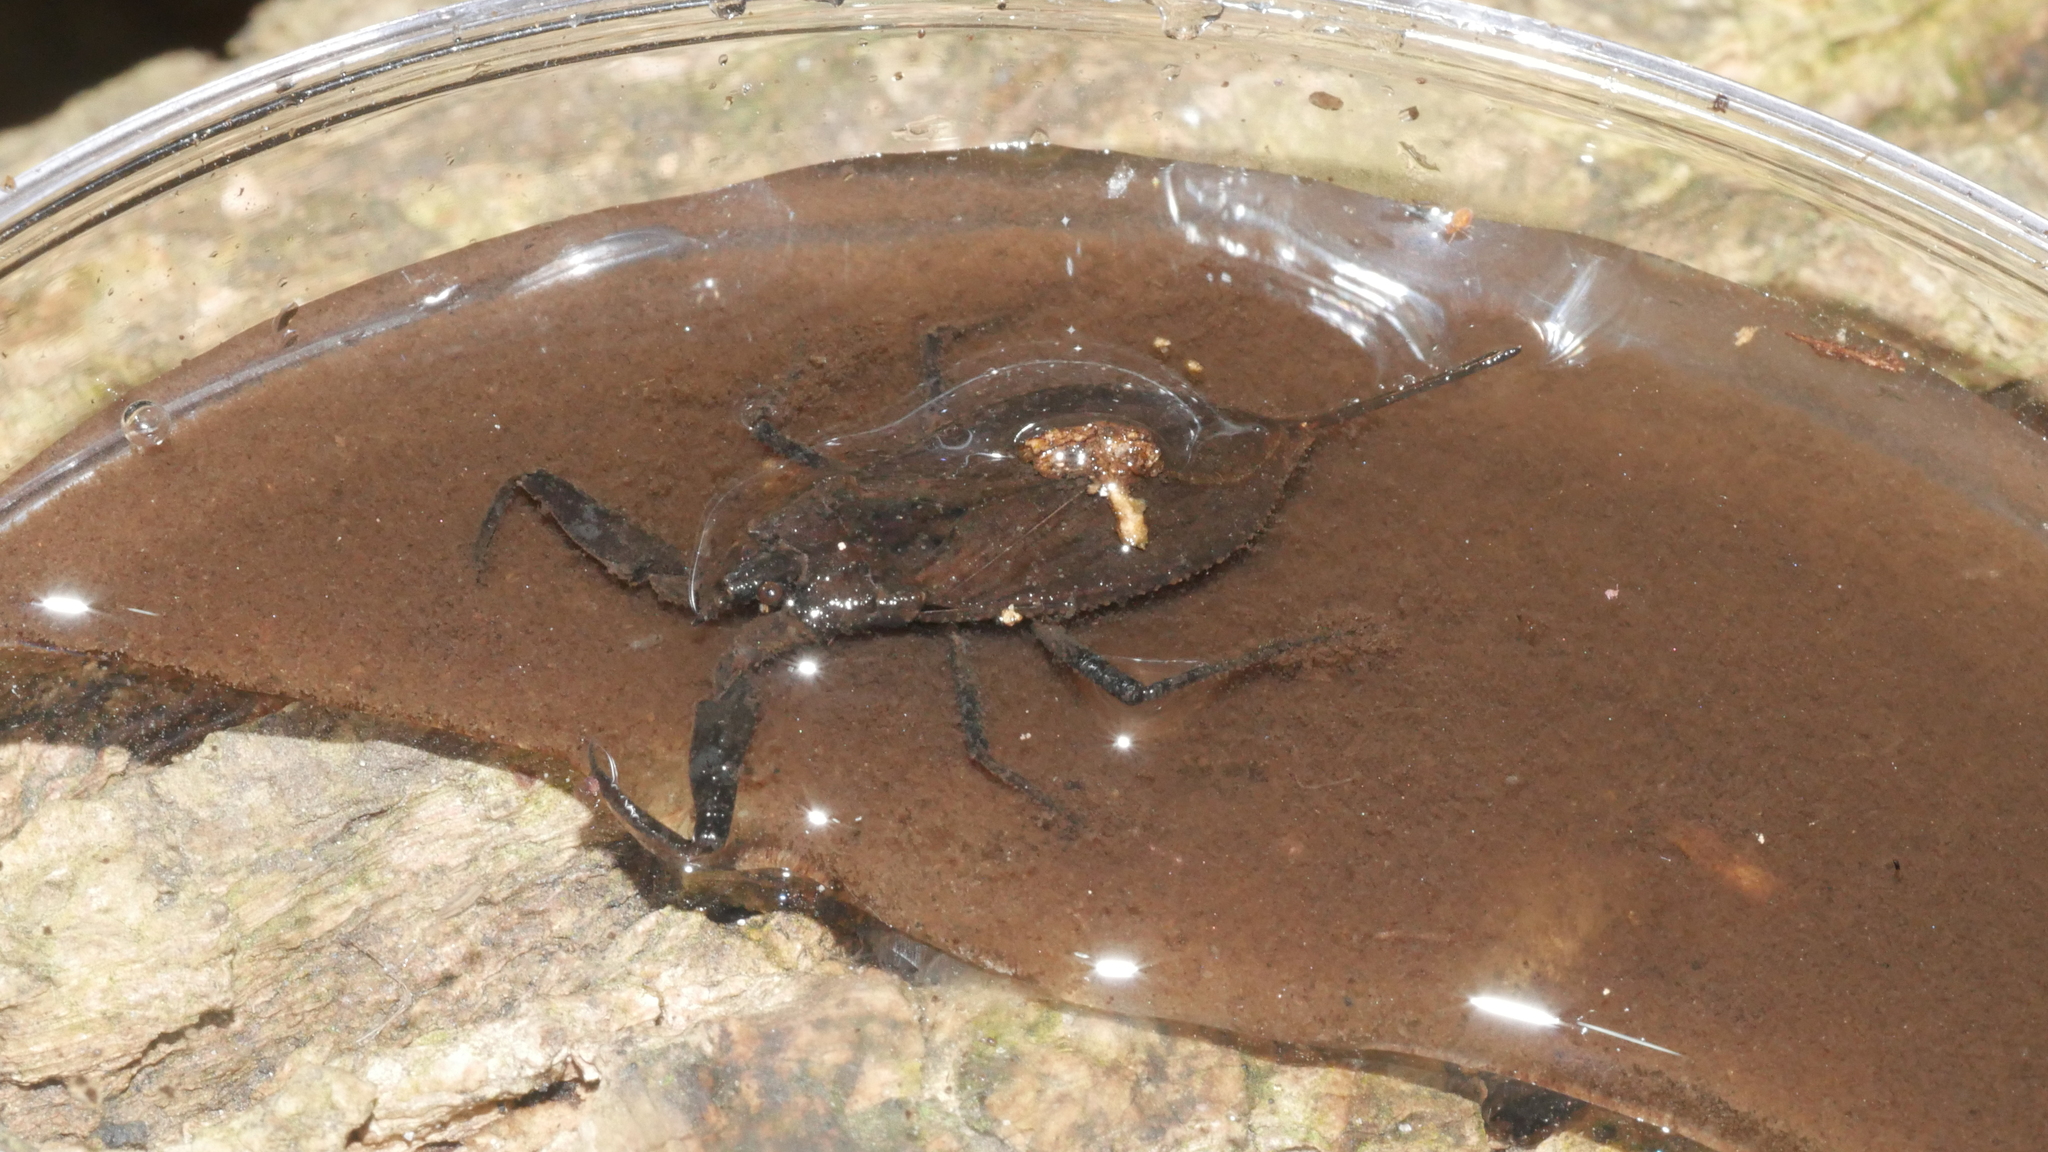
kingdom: Animalia
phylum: Arthropoda
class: Insecta
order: Hemiptera
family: Nepidae
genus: Nepa
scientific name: Nepa apiculata
